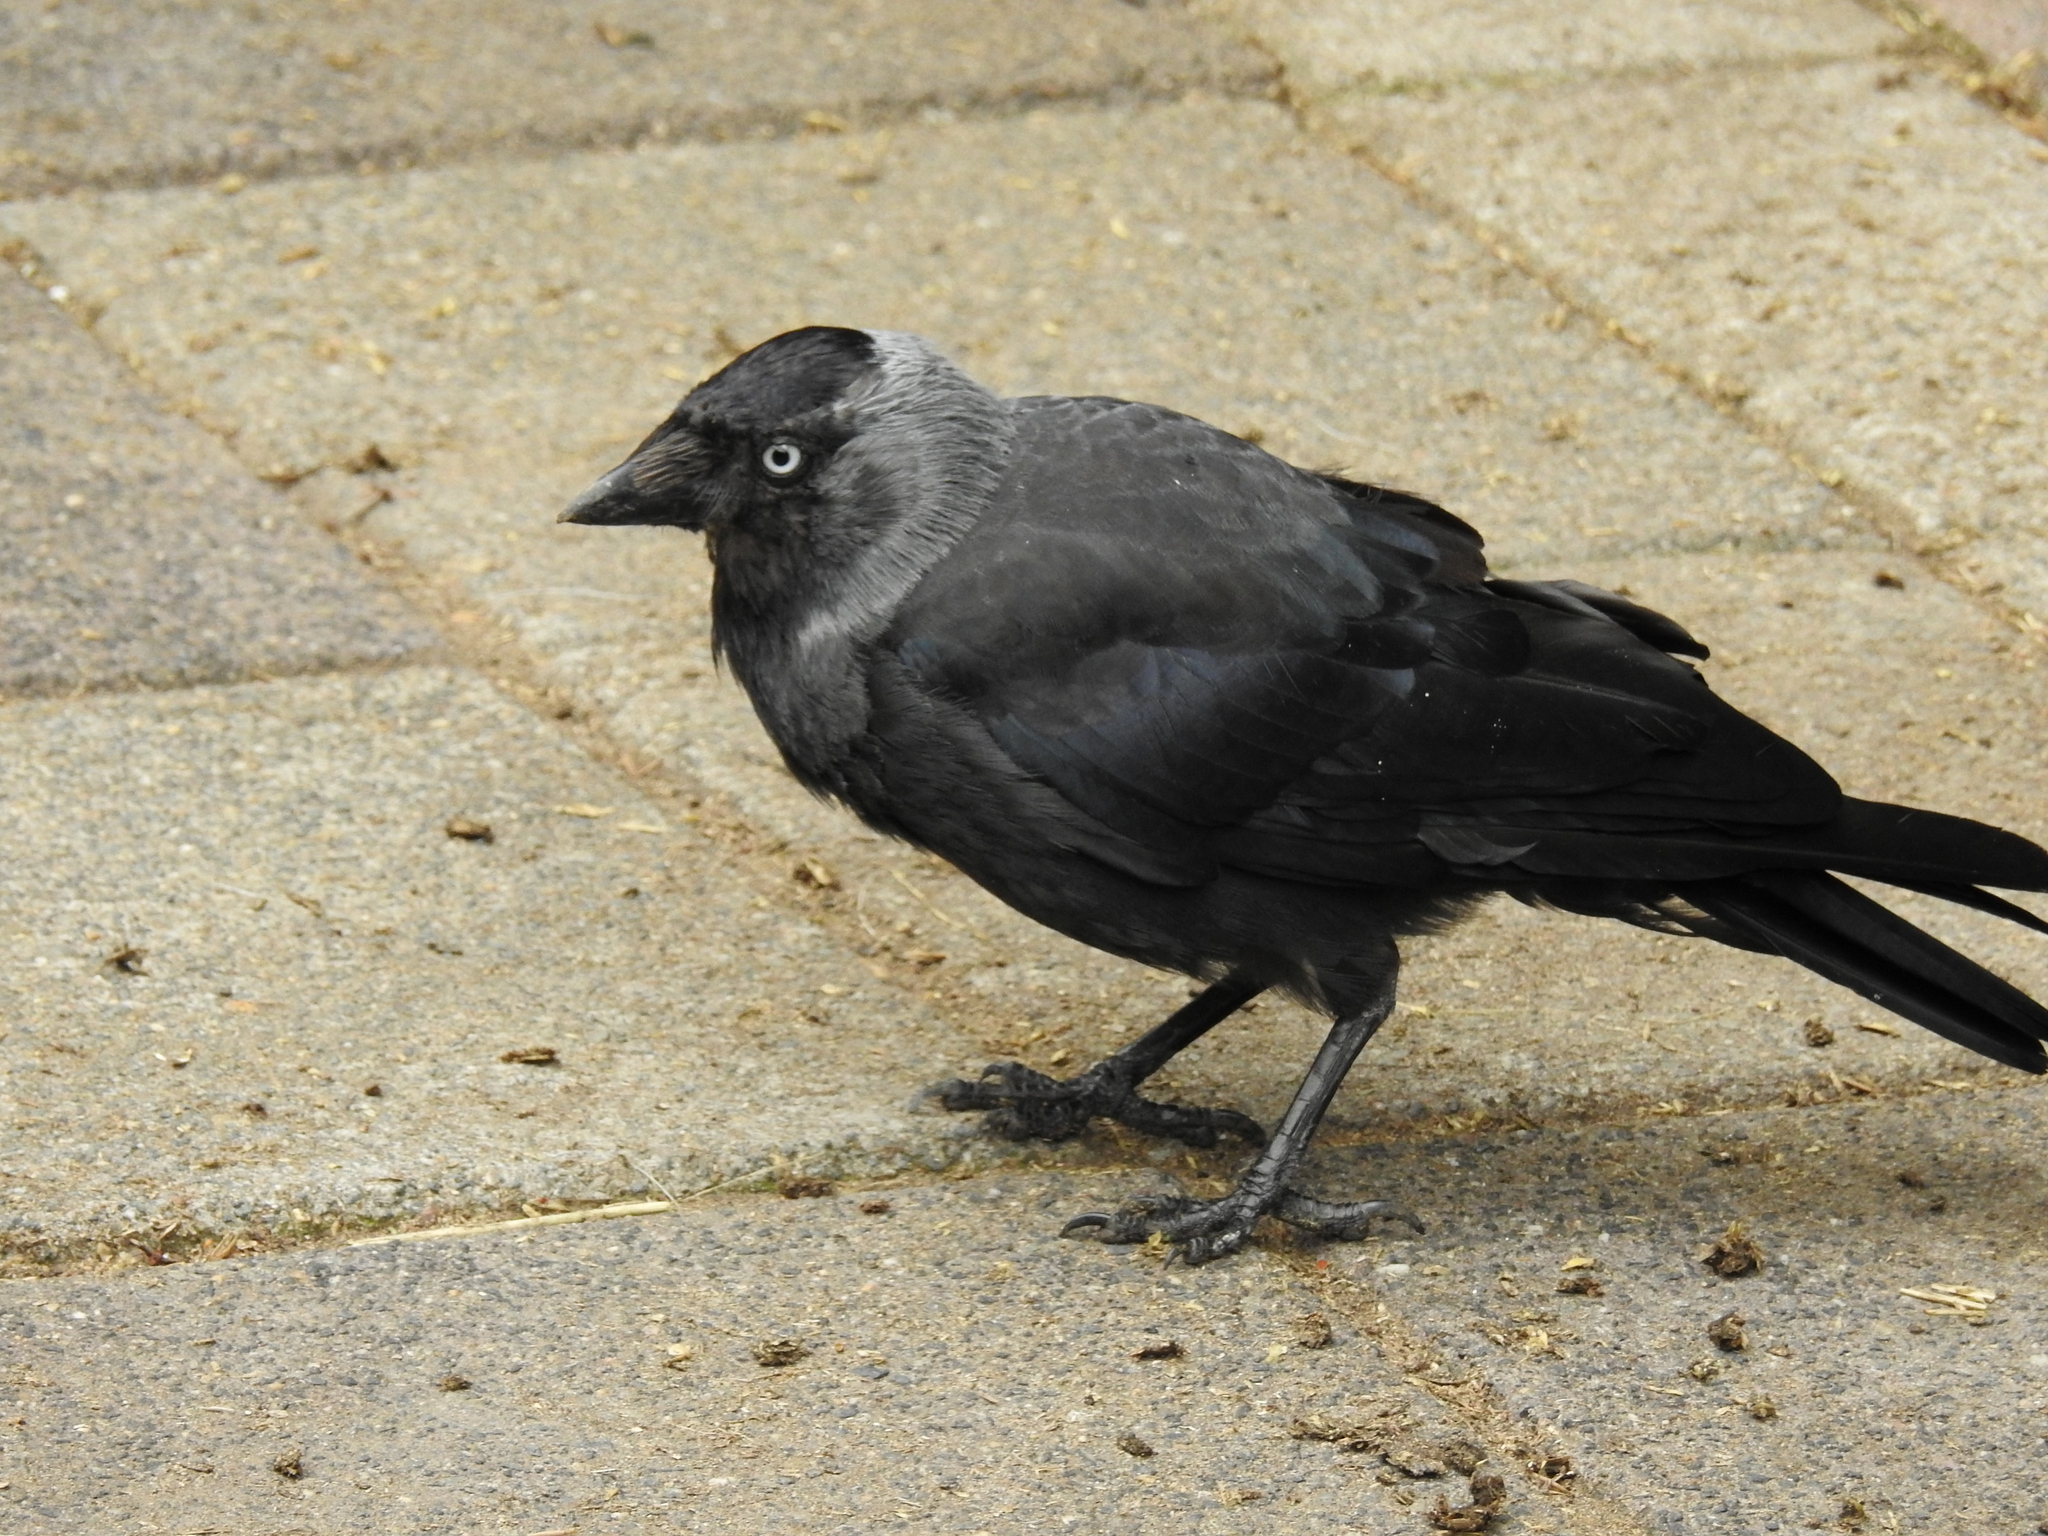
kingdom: Animalia
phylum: Chordata
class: Aves
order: Passeriformes
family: Corvidae
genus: Coloeus
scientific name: Coloeus monedula
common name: Western jackdaw
